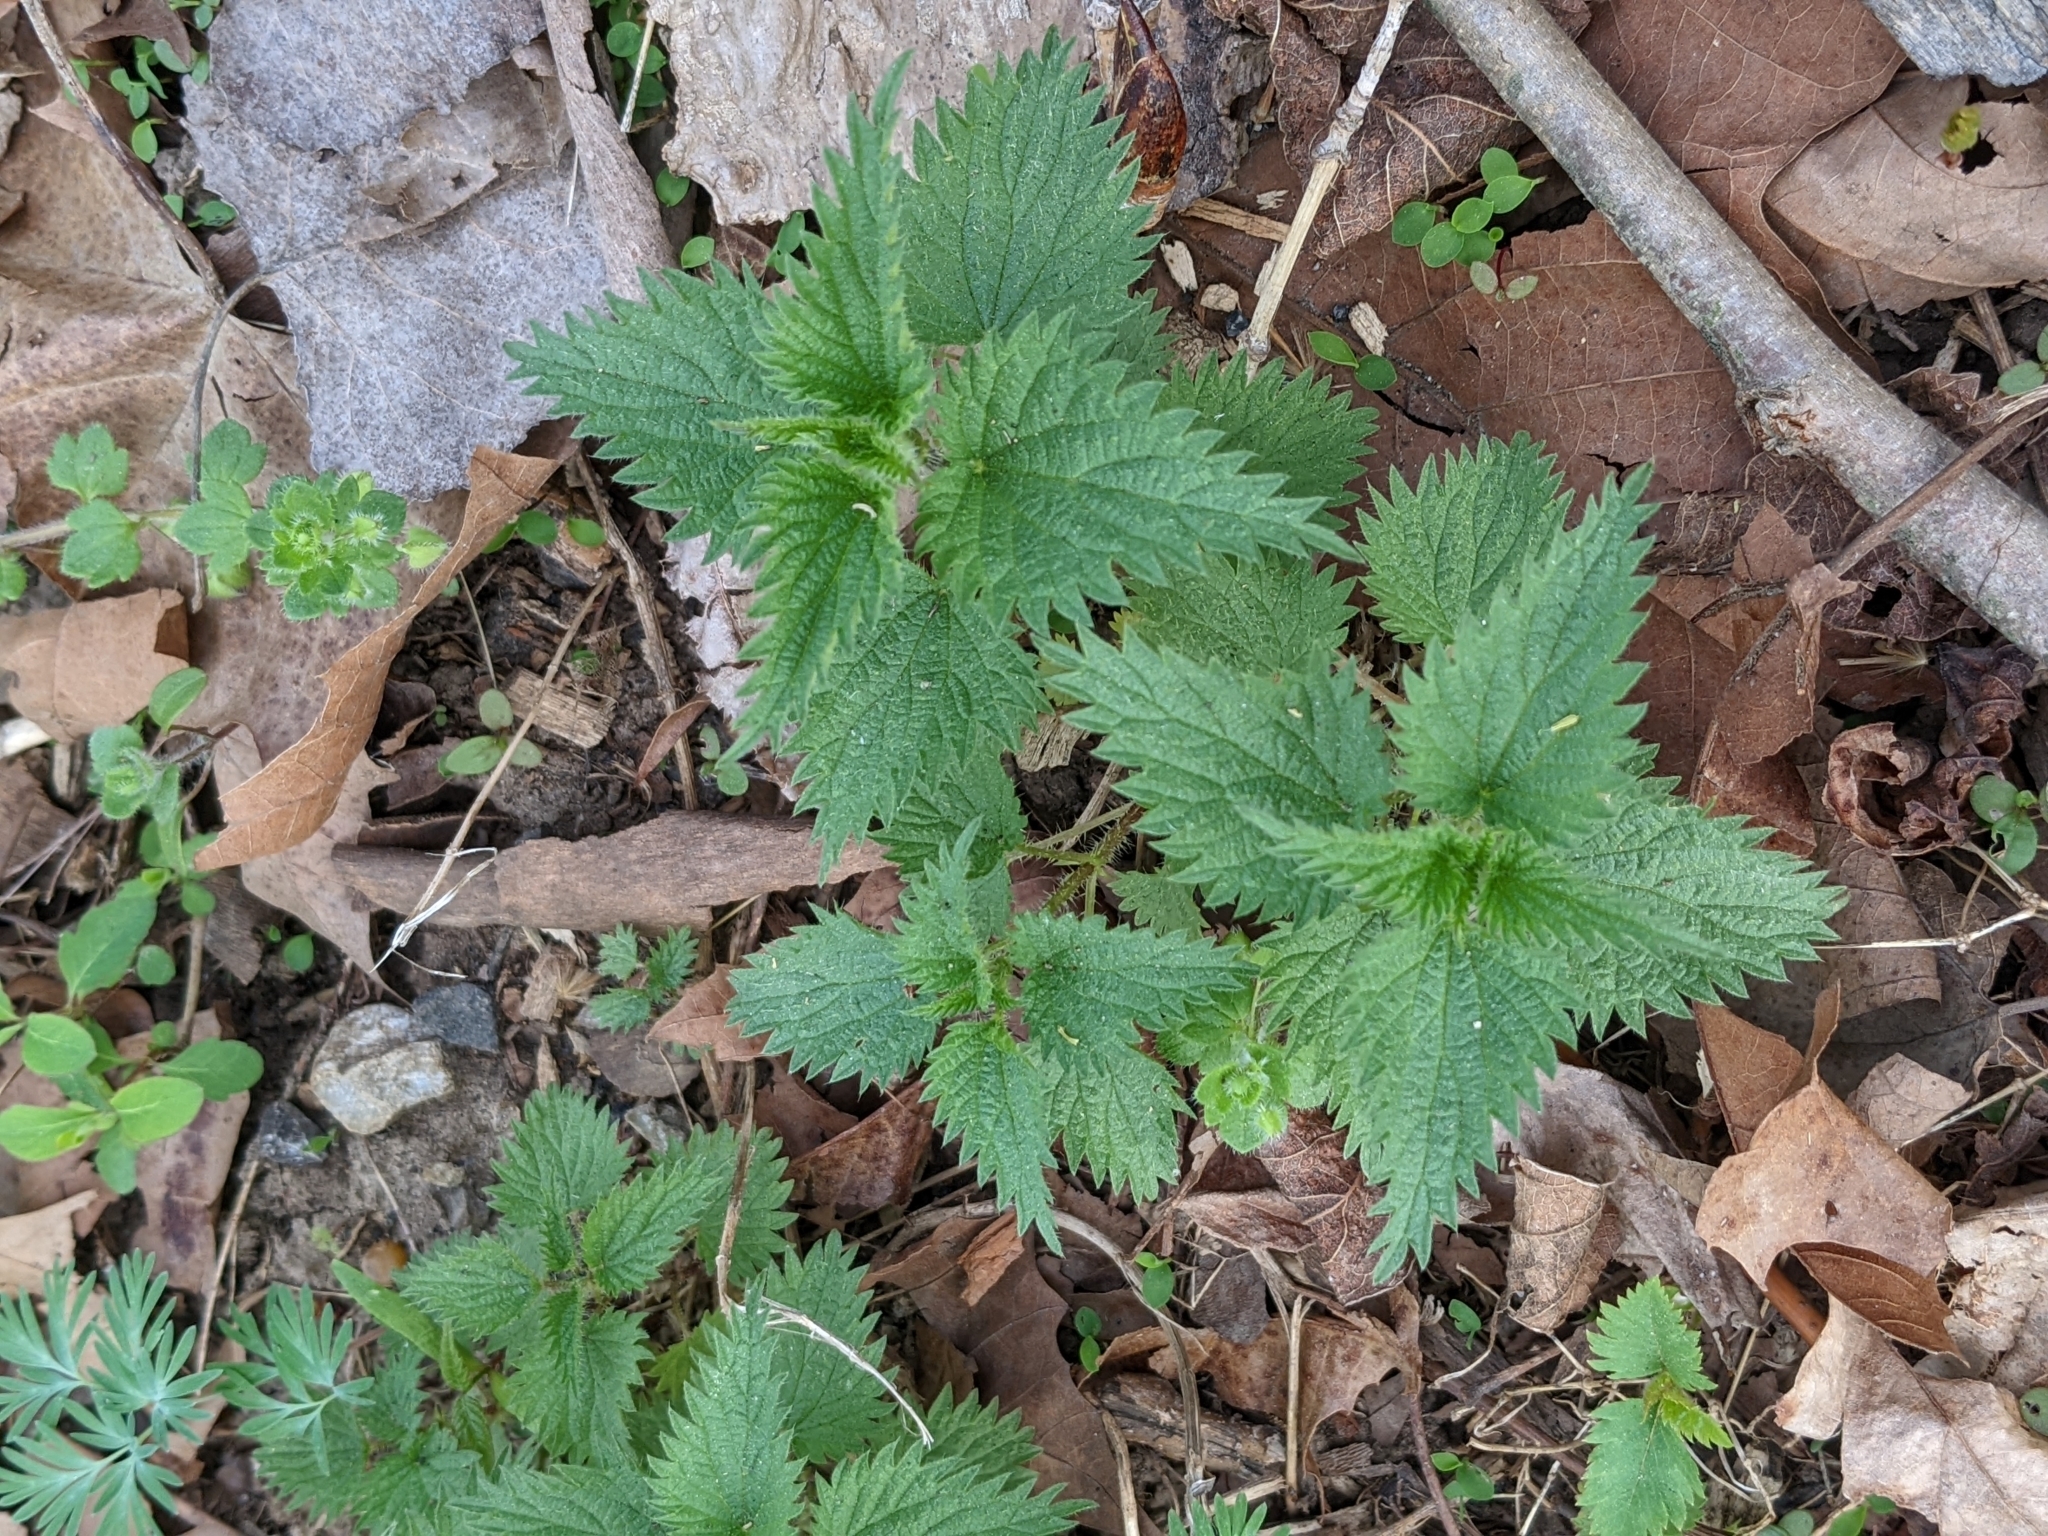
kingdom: Plantae
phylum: Tracheophyta
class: Magnoliopsida
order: Rosales
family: Urticaceae
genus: Urtica
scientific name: Urtica dioica
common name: Common nettle
